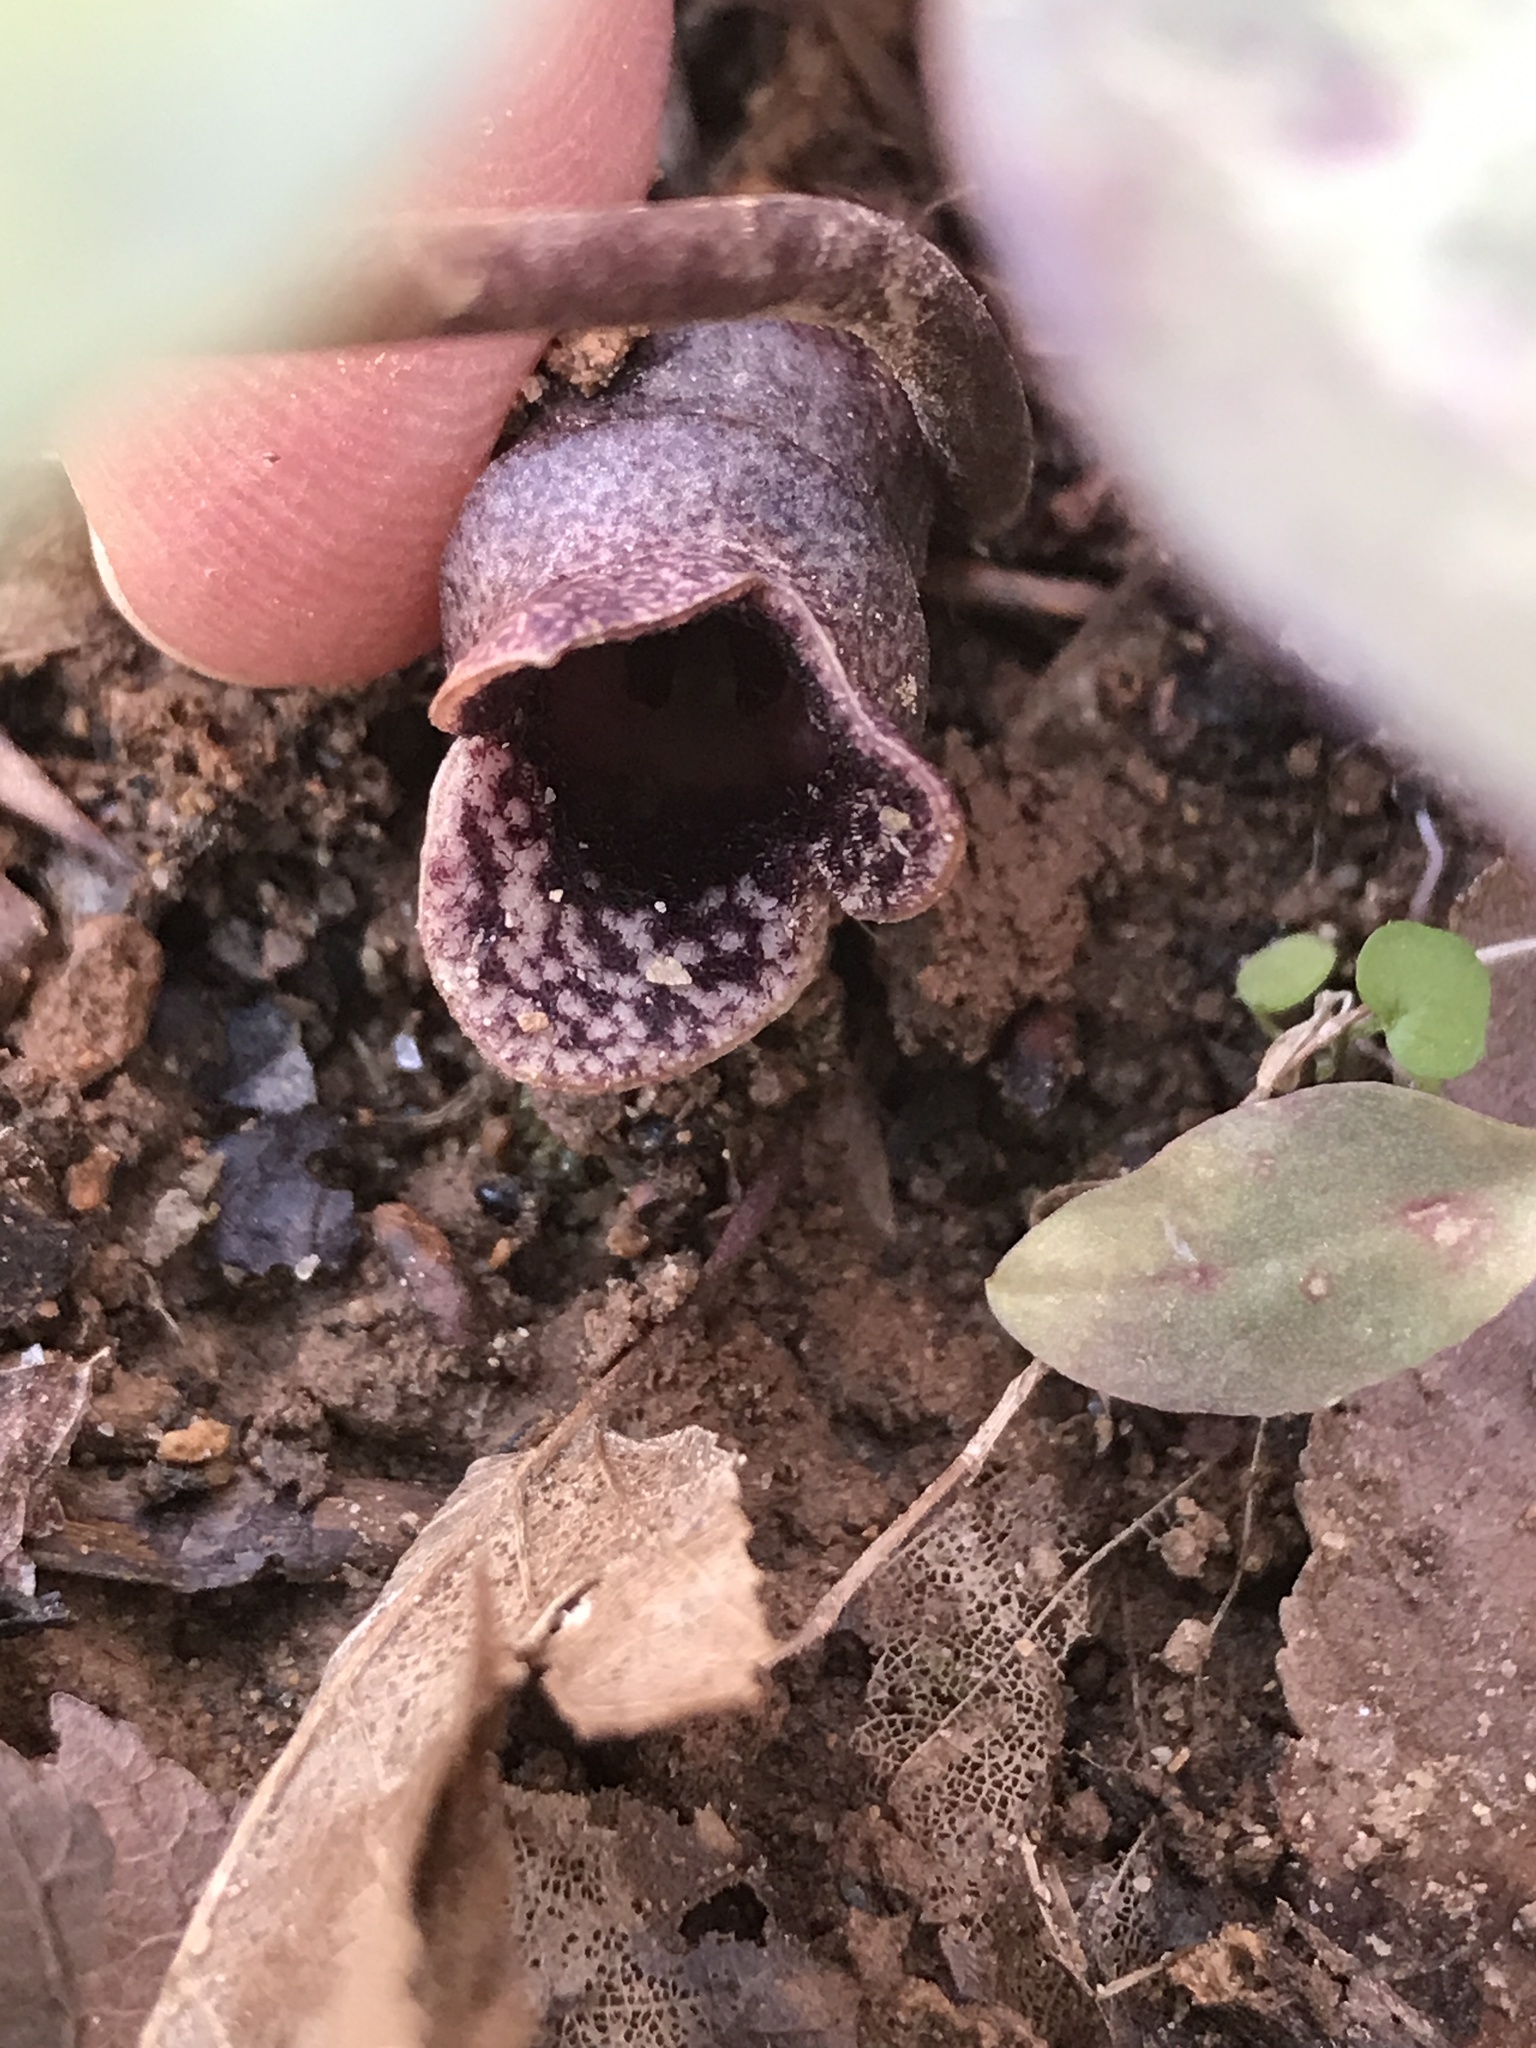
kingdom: Plantae
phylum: Tracheophyta
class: Magnoliopsida
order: Piperales
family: Aristolochiaceae
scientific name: Aristolochiaceae
